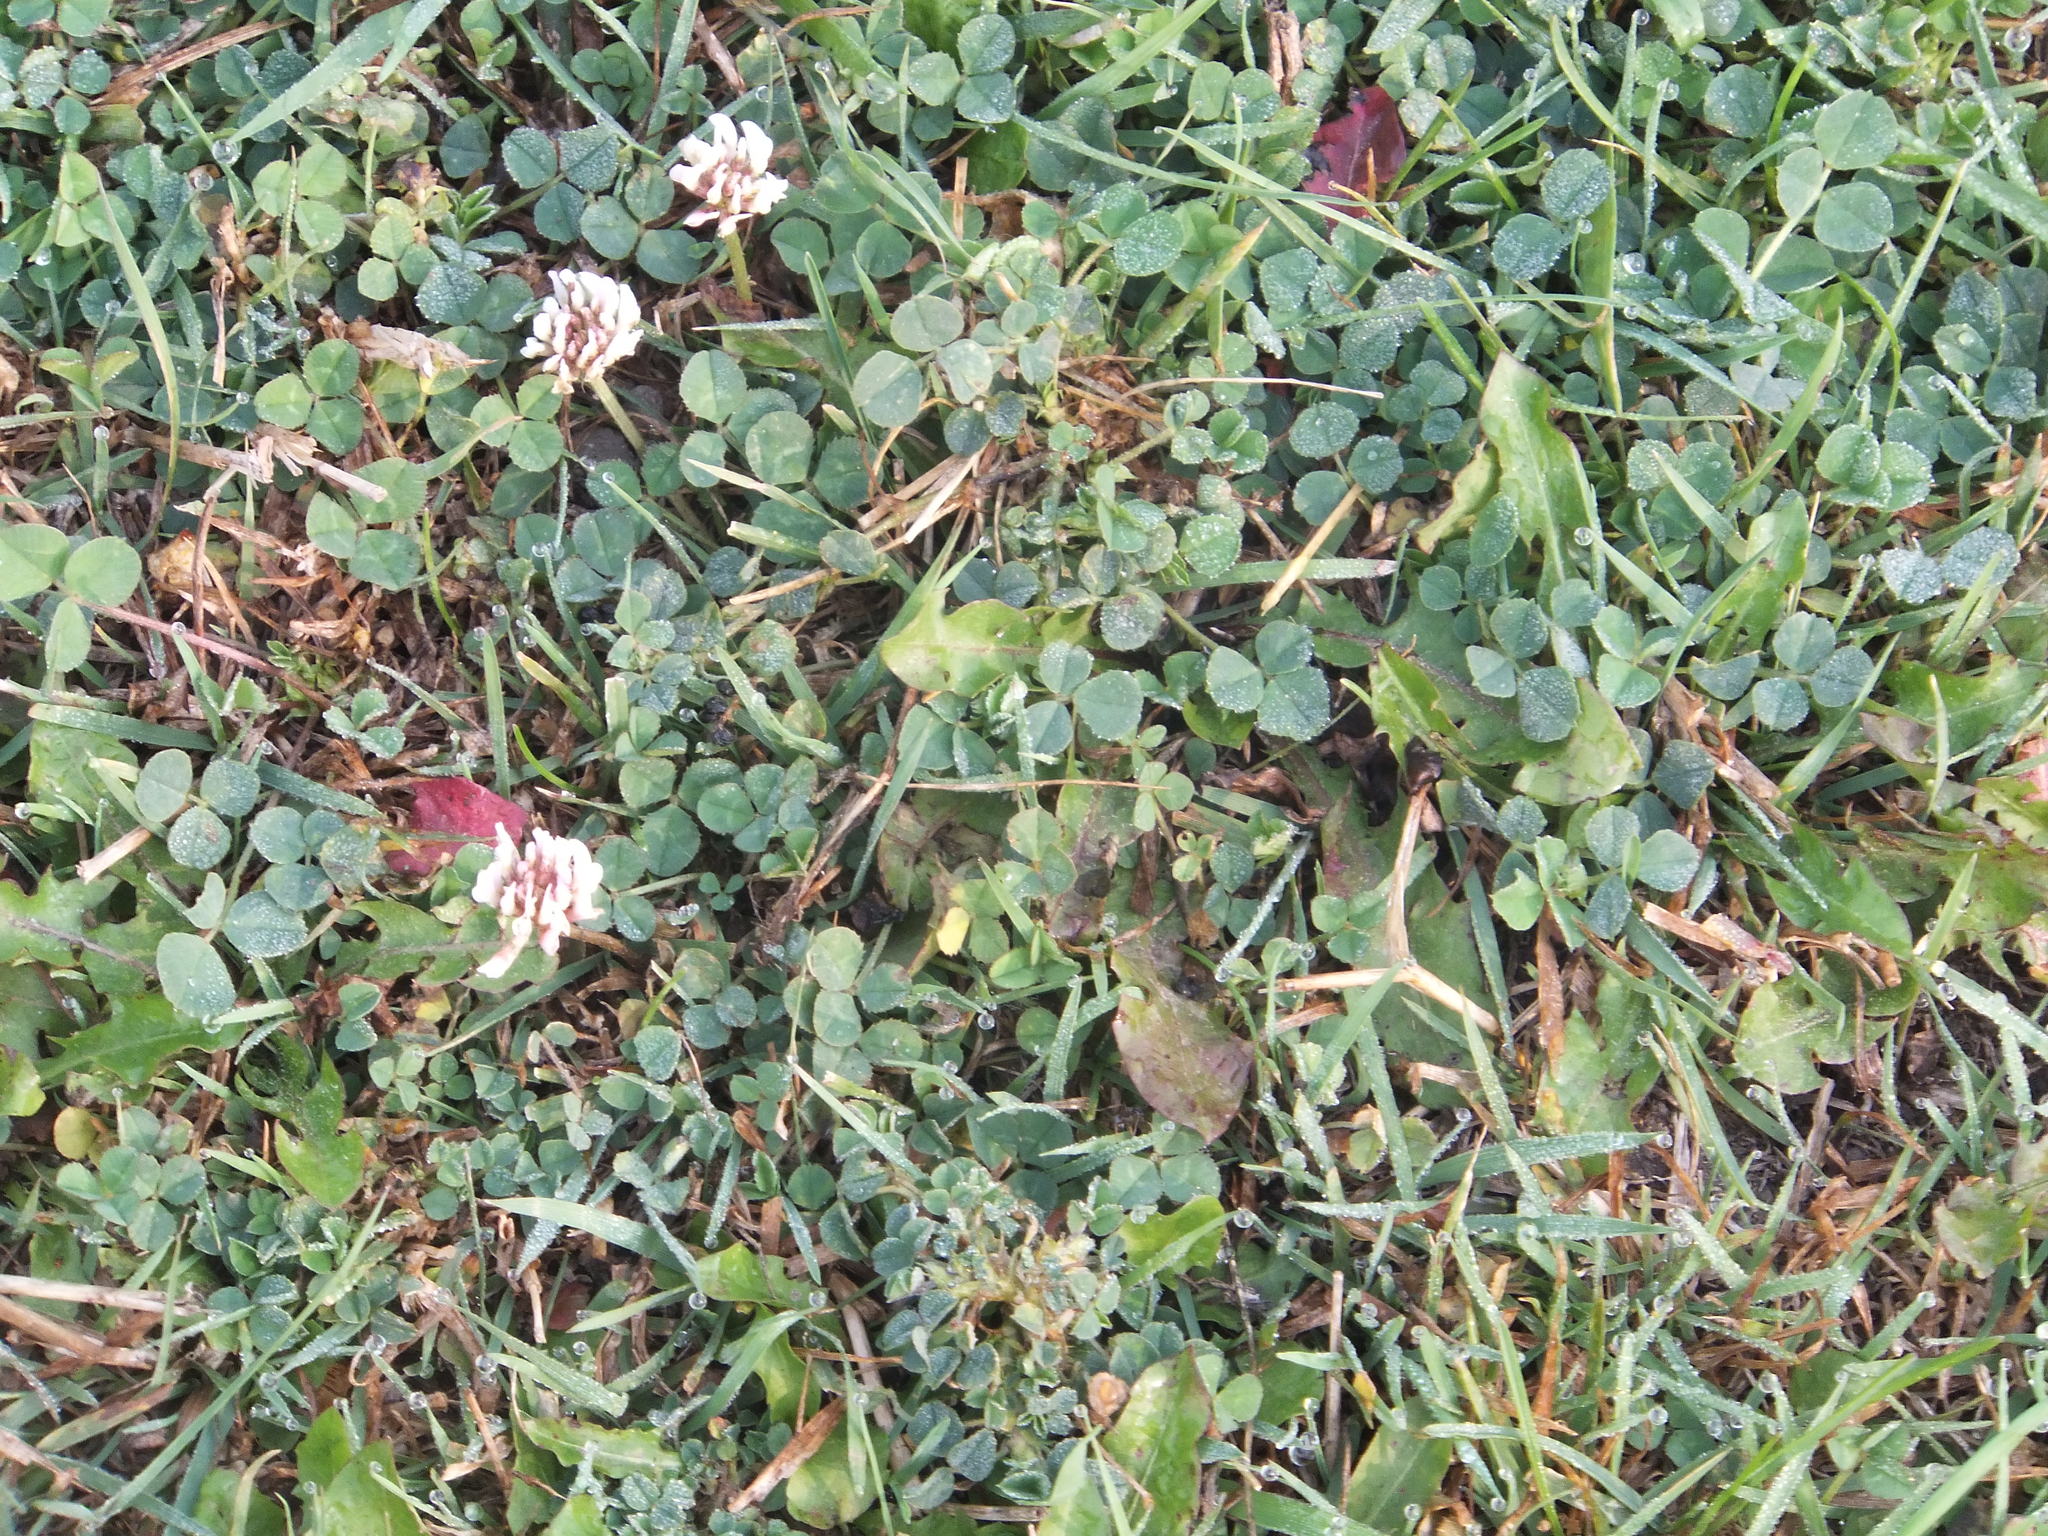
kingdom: Plantae
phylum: Tracheophyta
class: Magnoliopsida
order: Fabales
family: Fabaceae
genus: Trifolium
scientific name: Trifolium repens
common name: White clover
